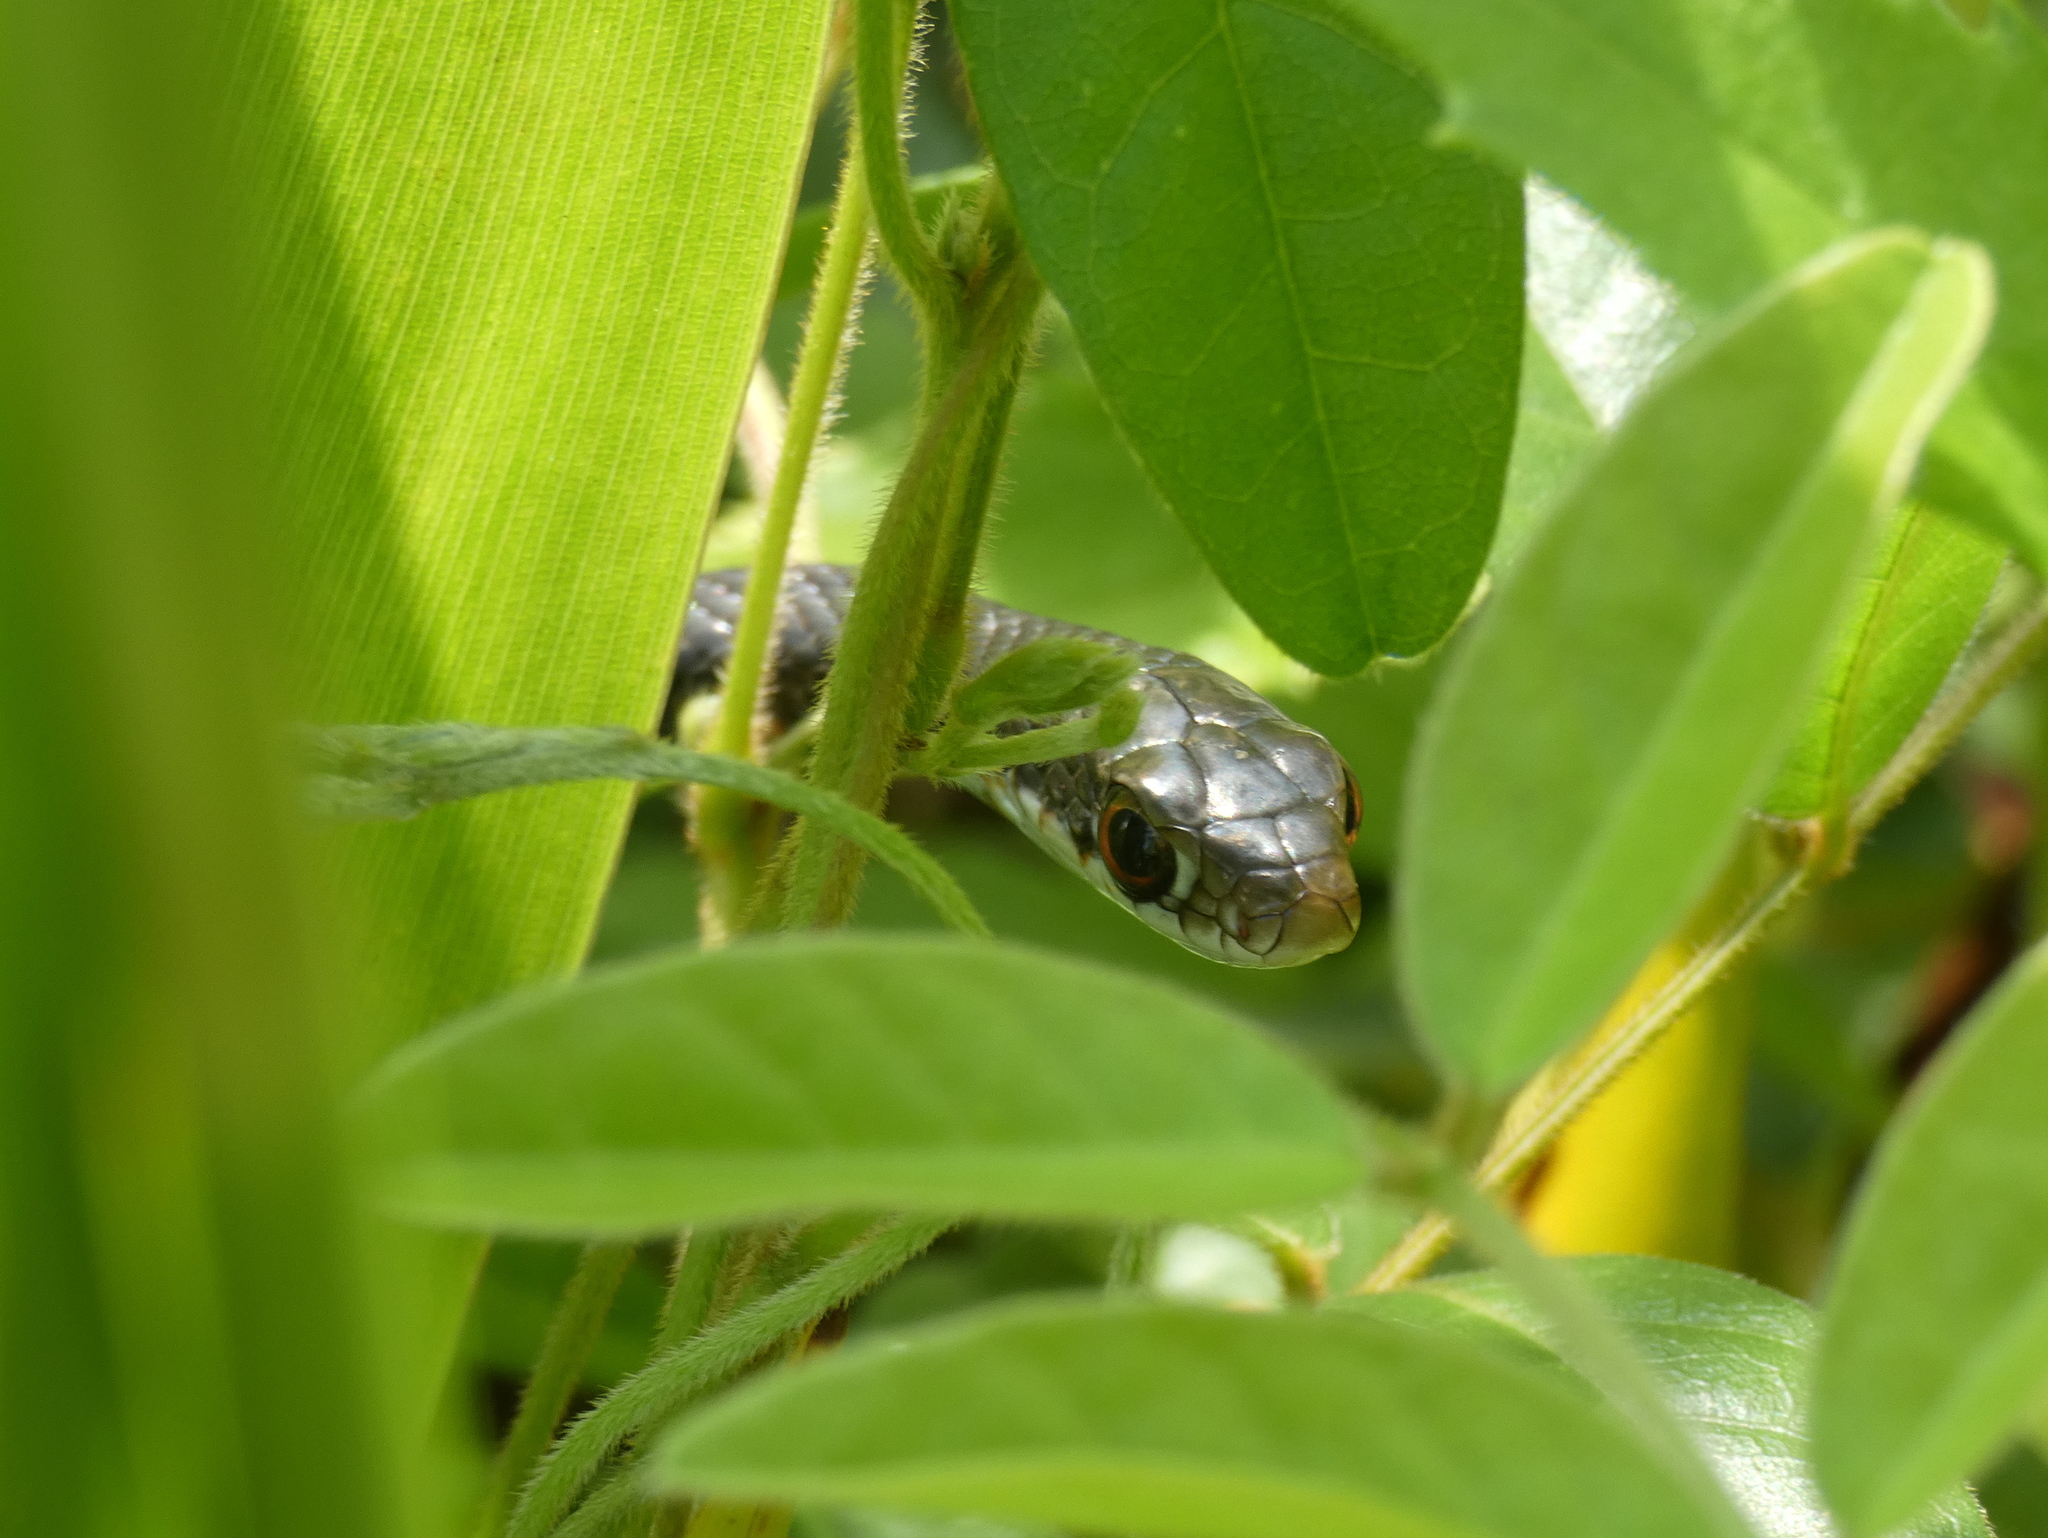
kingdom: Animalia
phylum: Chordata
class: Squamata
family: Colubridae
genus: Coluber
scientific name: Coluber constrictor
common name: Eastern racer
